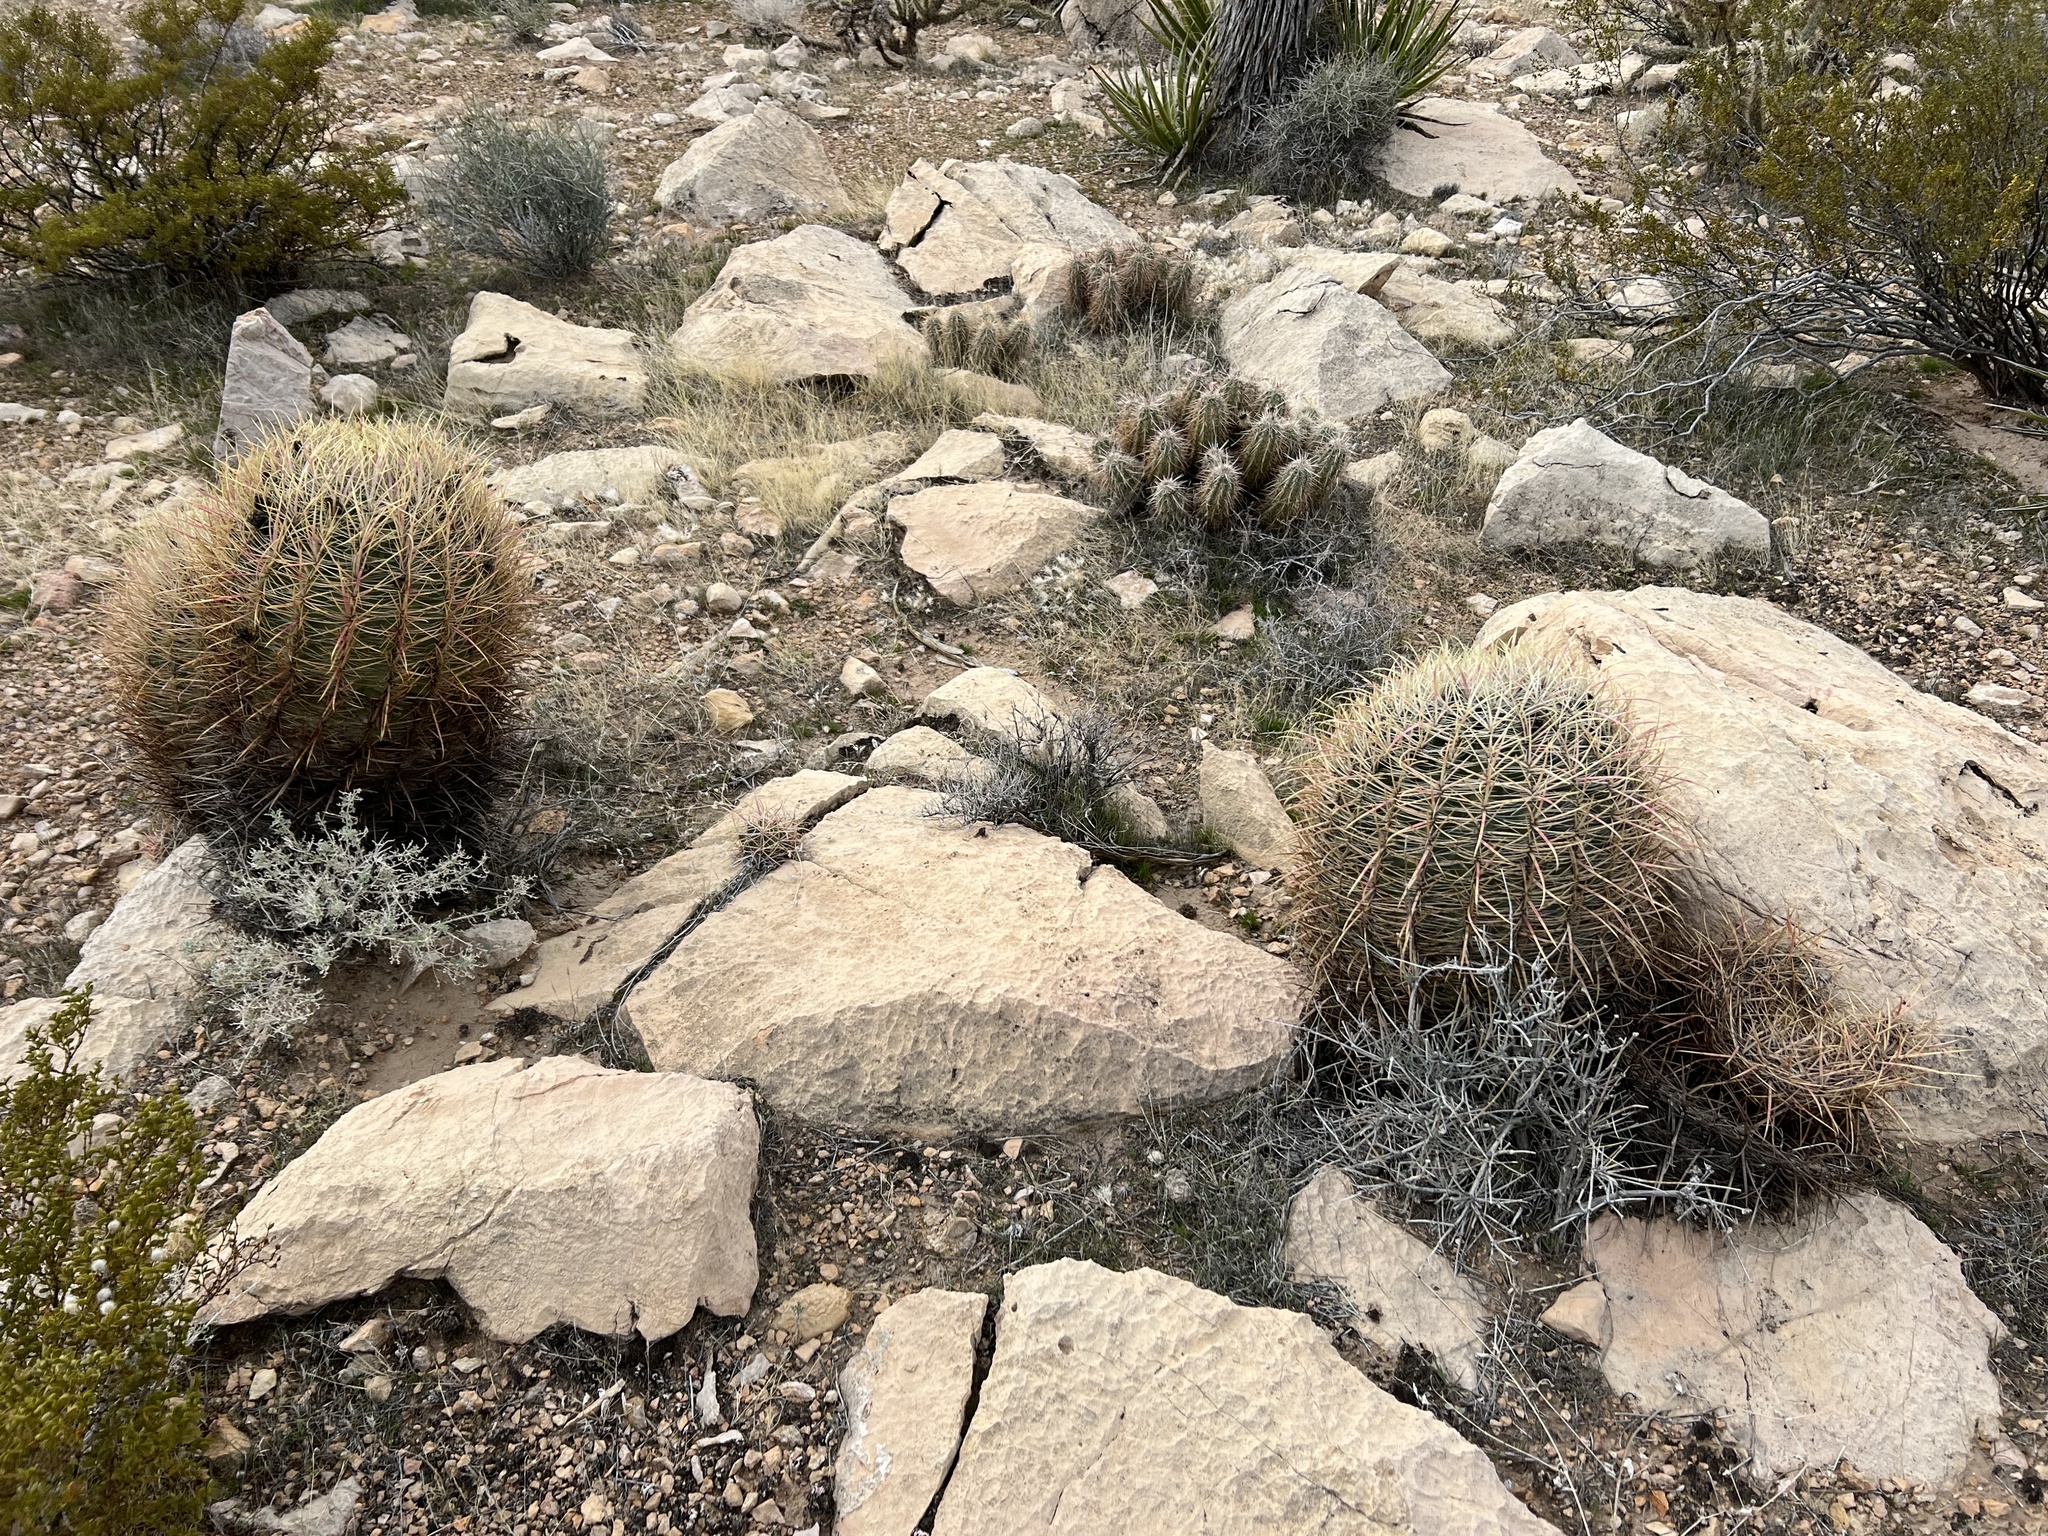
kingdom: Plantae
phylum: Tracheophyta
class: Magnoliopsida
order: Caryophyllales
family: Cactaceae
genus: Ferocactus
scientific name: Ferocactus cylindraceus
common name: California barrel cactus
